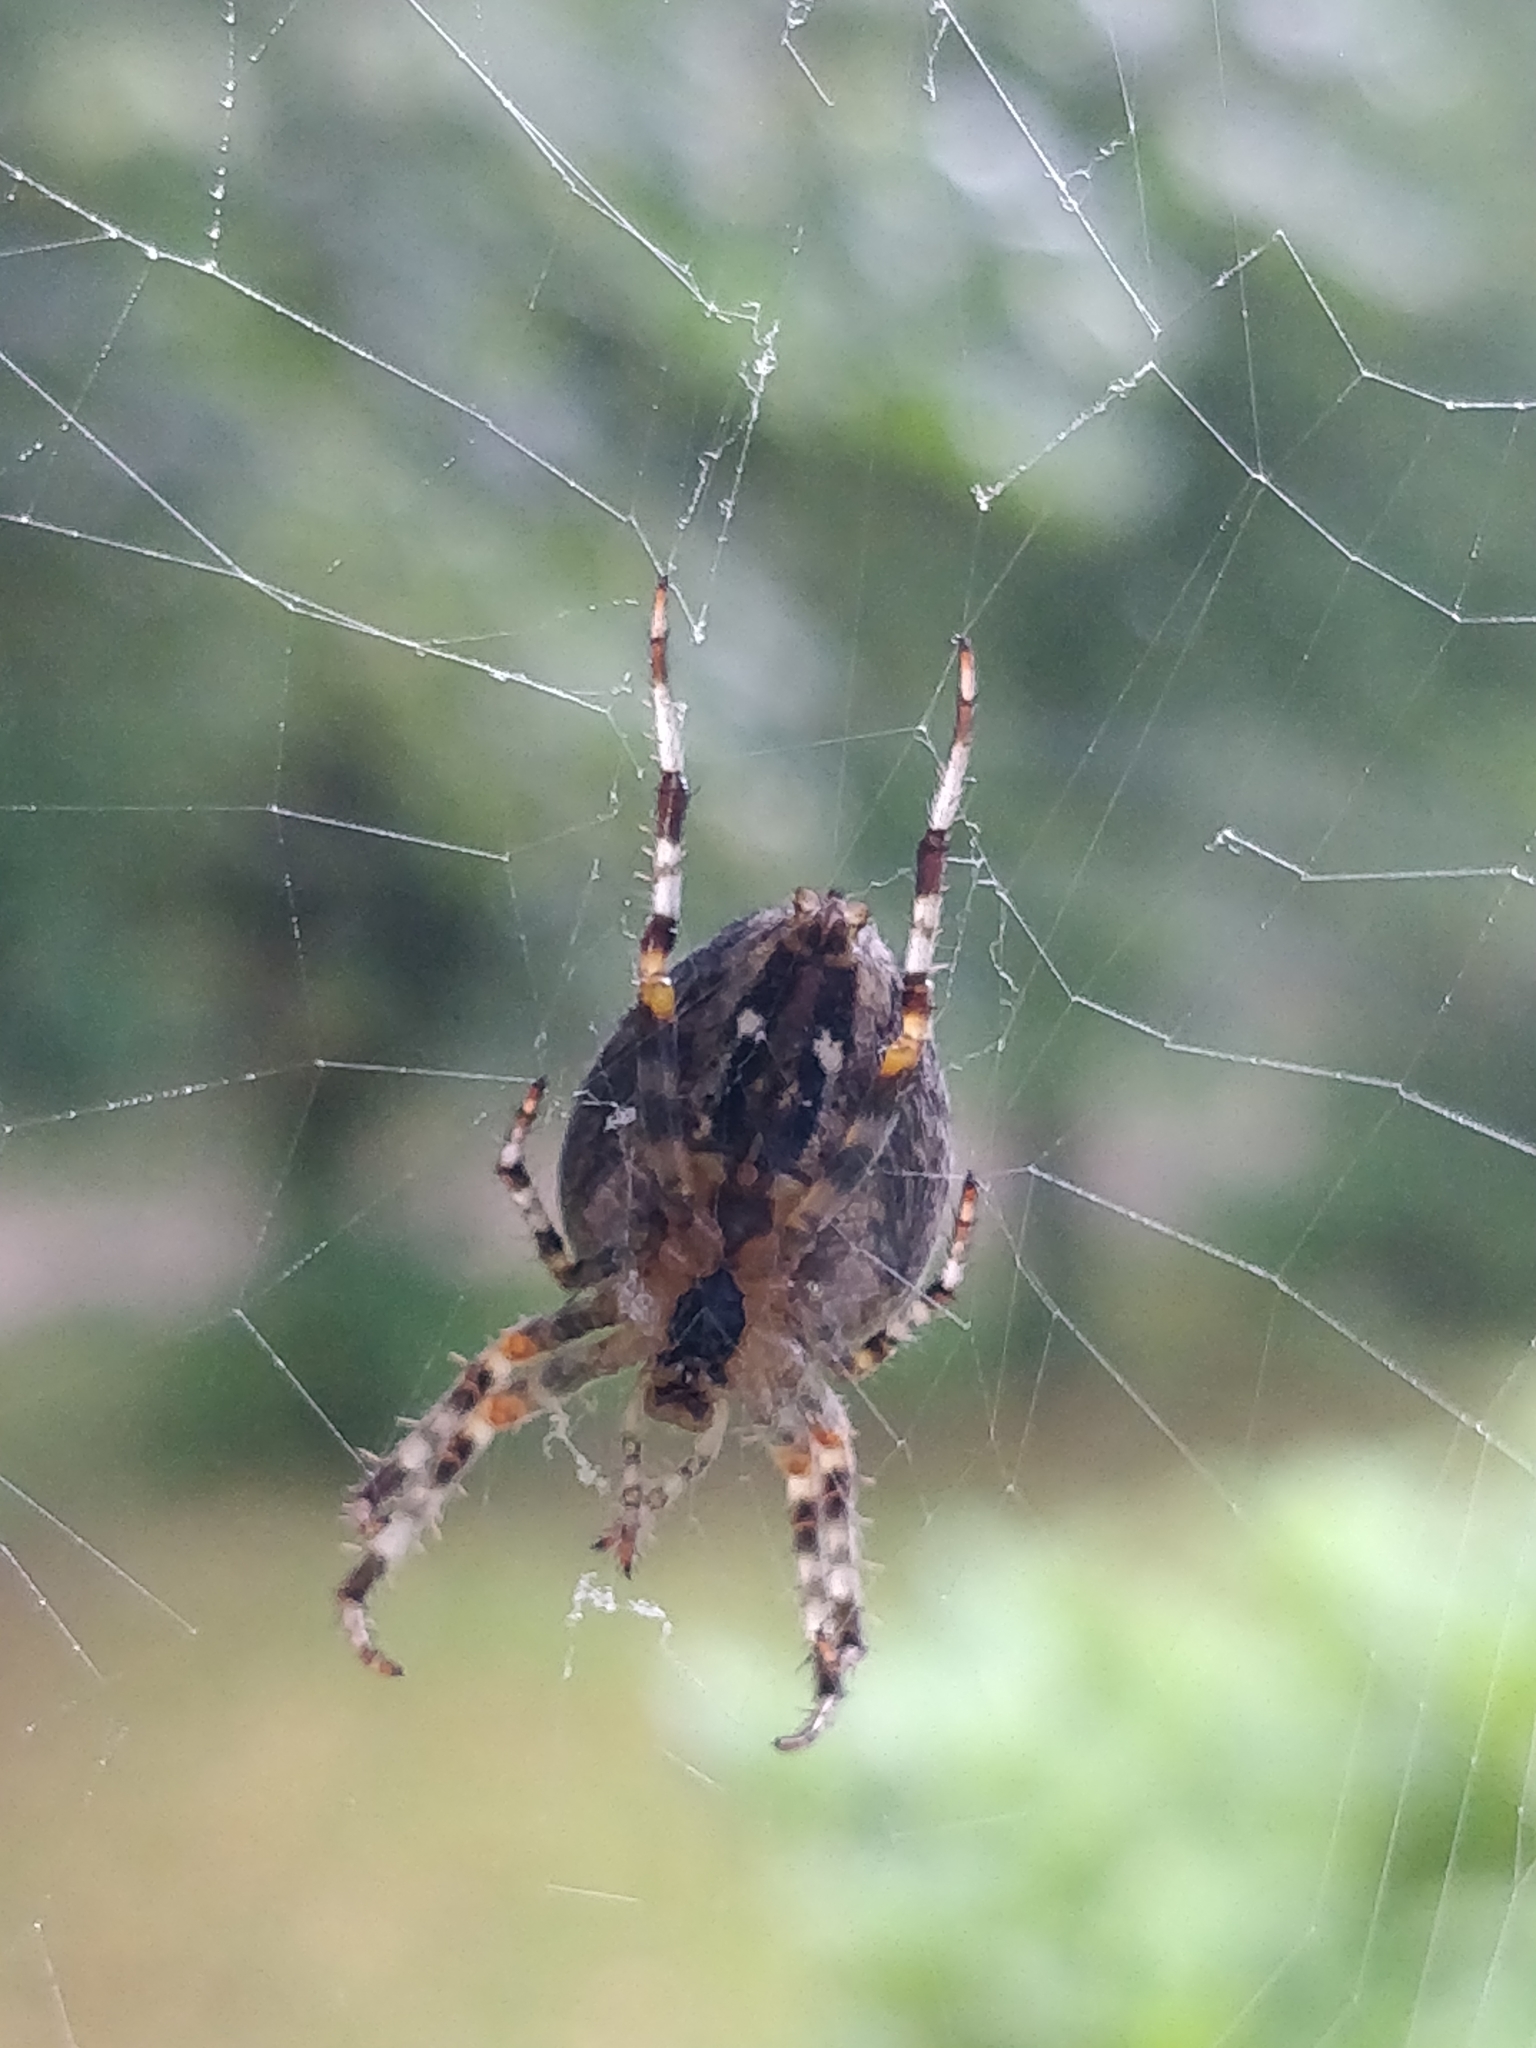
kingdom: Animalia
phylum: Arthropoda
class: Arachnida
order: Araneae
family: Araneidae
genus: Araneus
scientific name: Araneus diadematus
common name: Cross orbweaver
